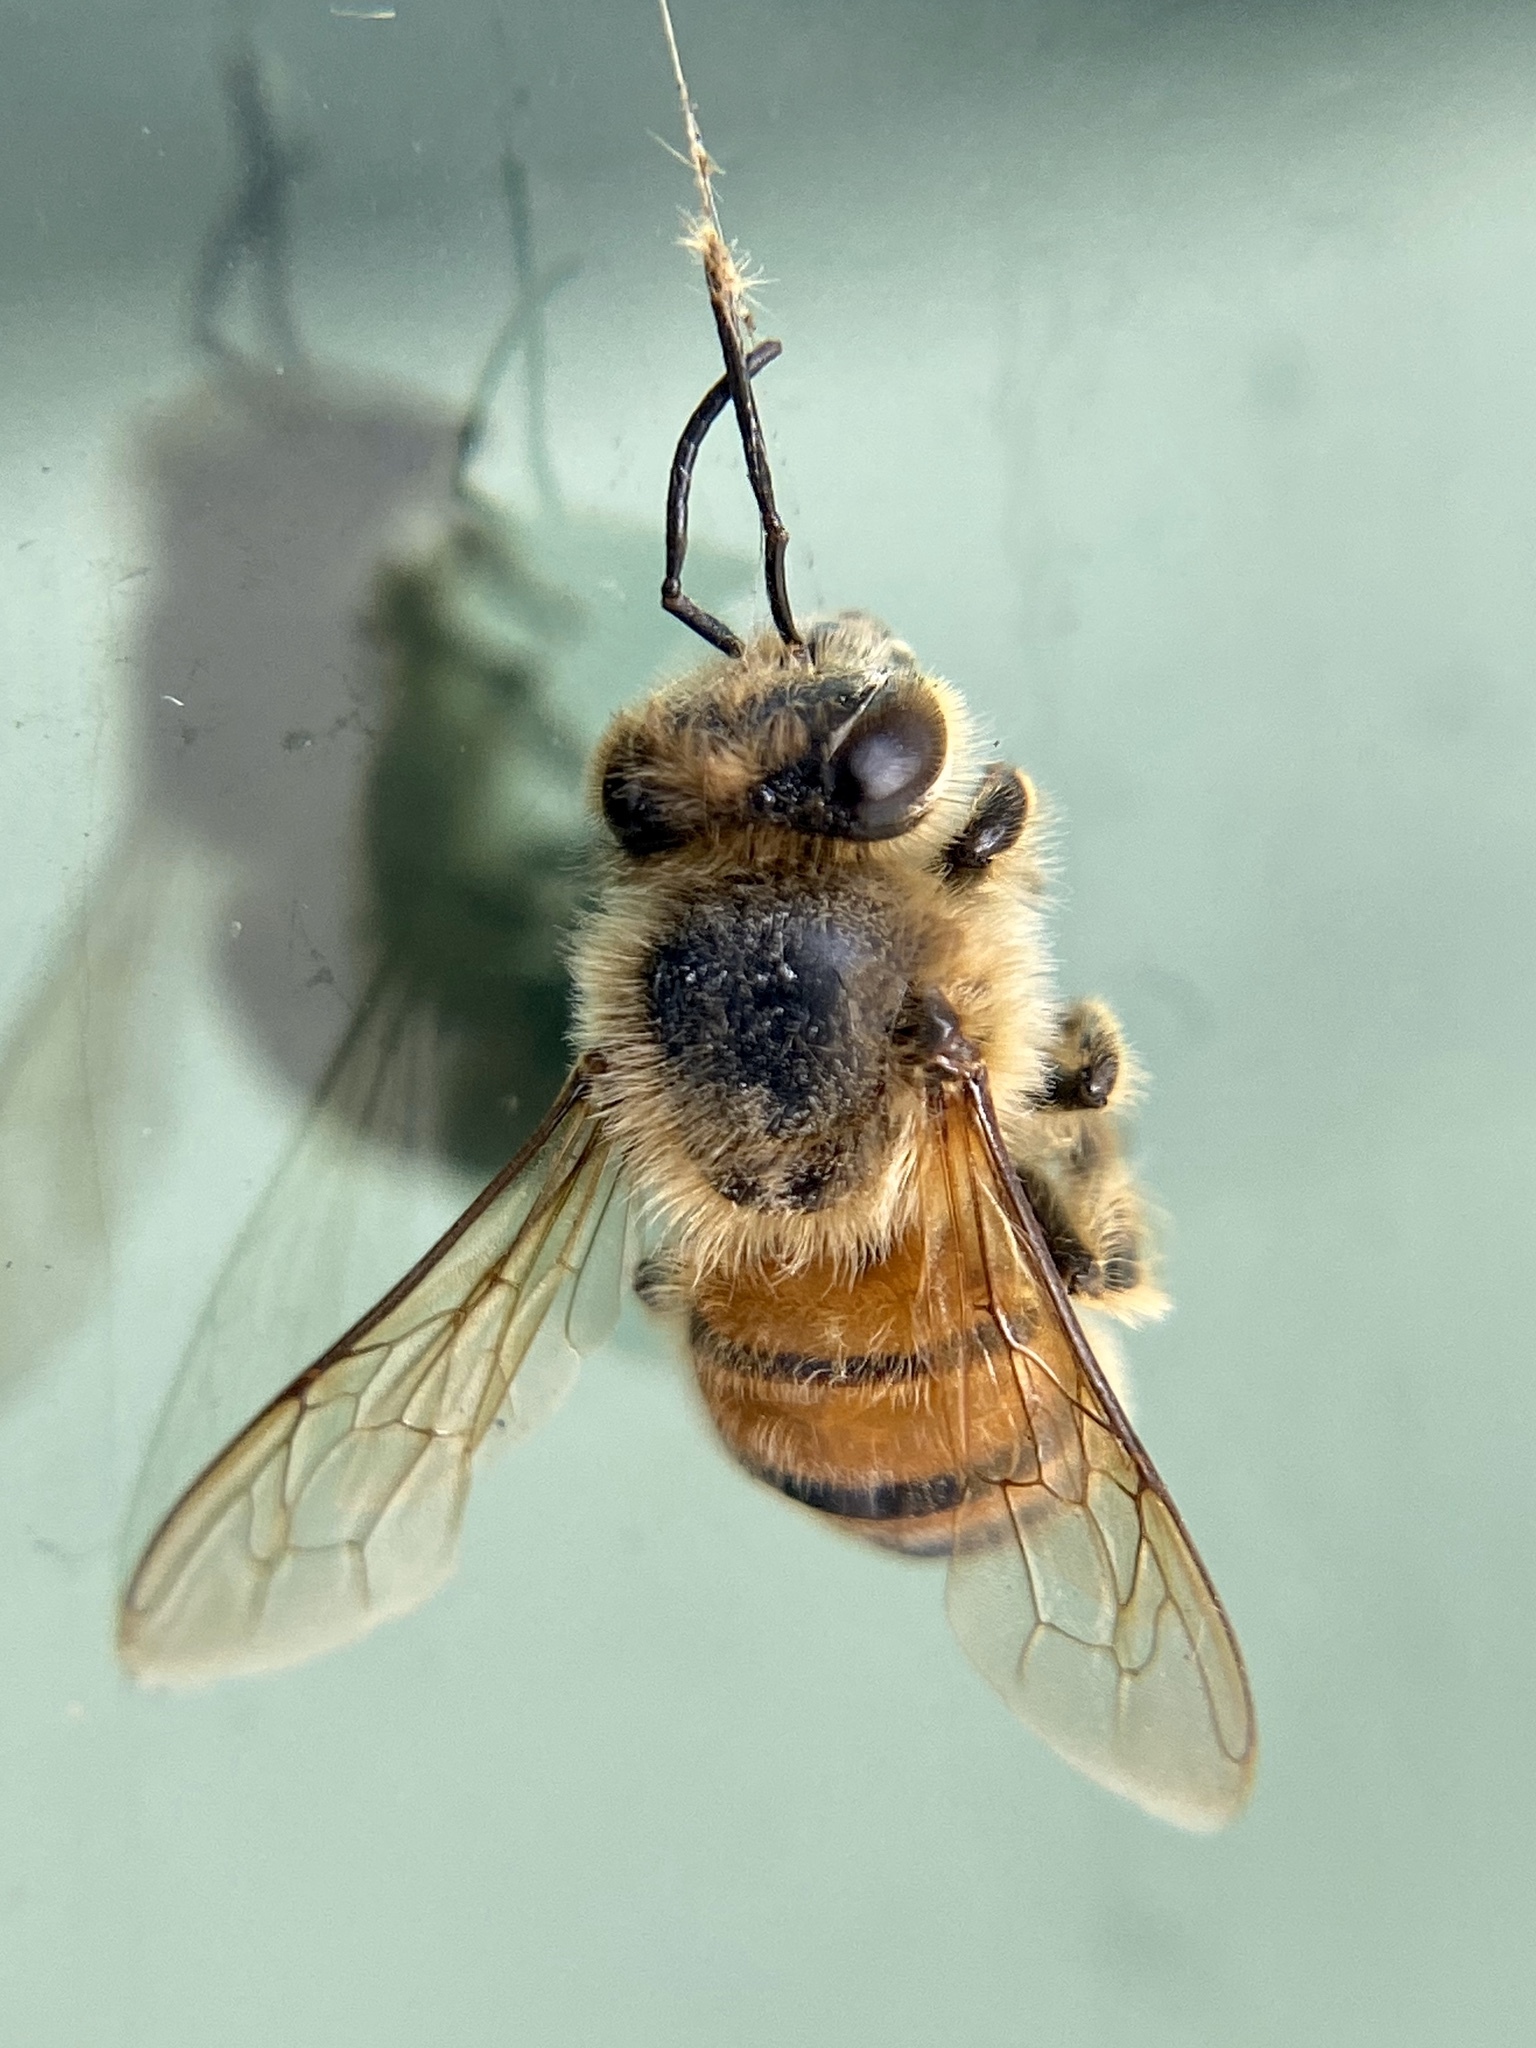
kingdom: Animalia
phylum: Arthropoda
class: Insecta
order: Hymenoptera
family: Apidae
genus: Apis
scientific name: Apis mellifera
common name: Honey bee
